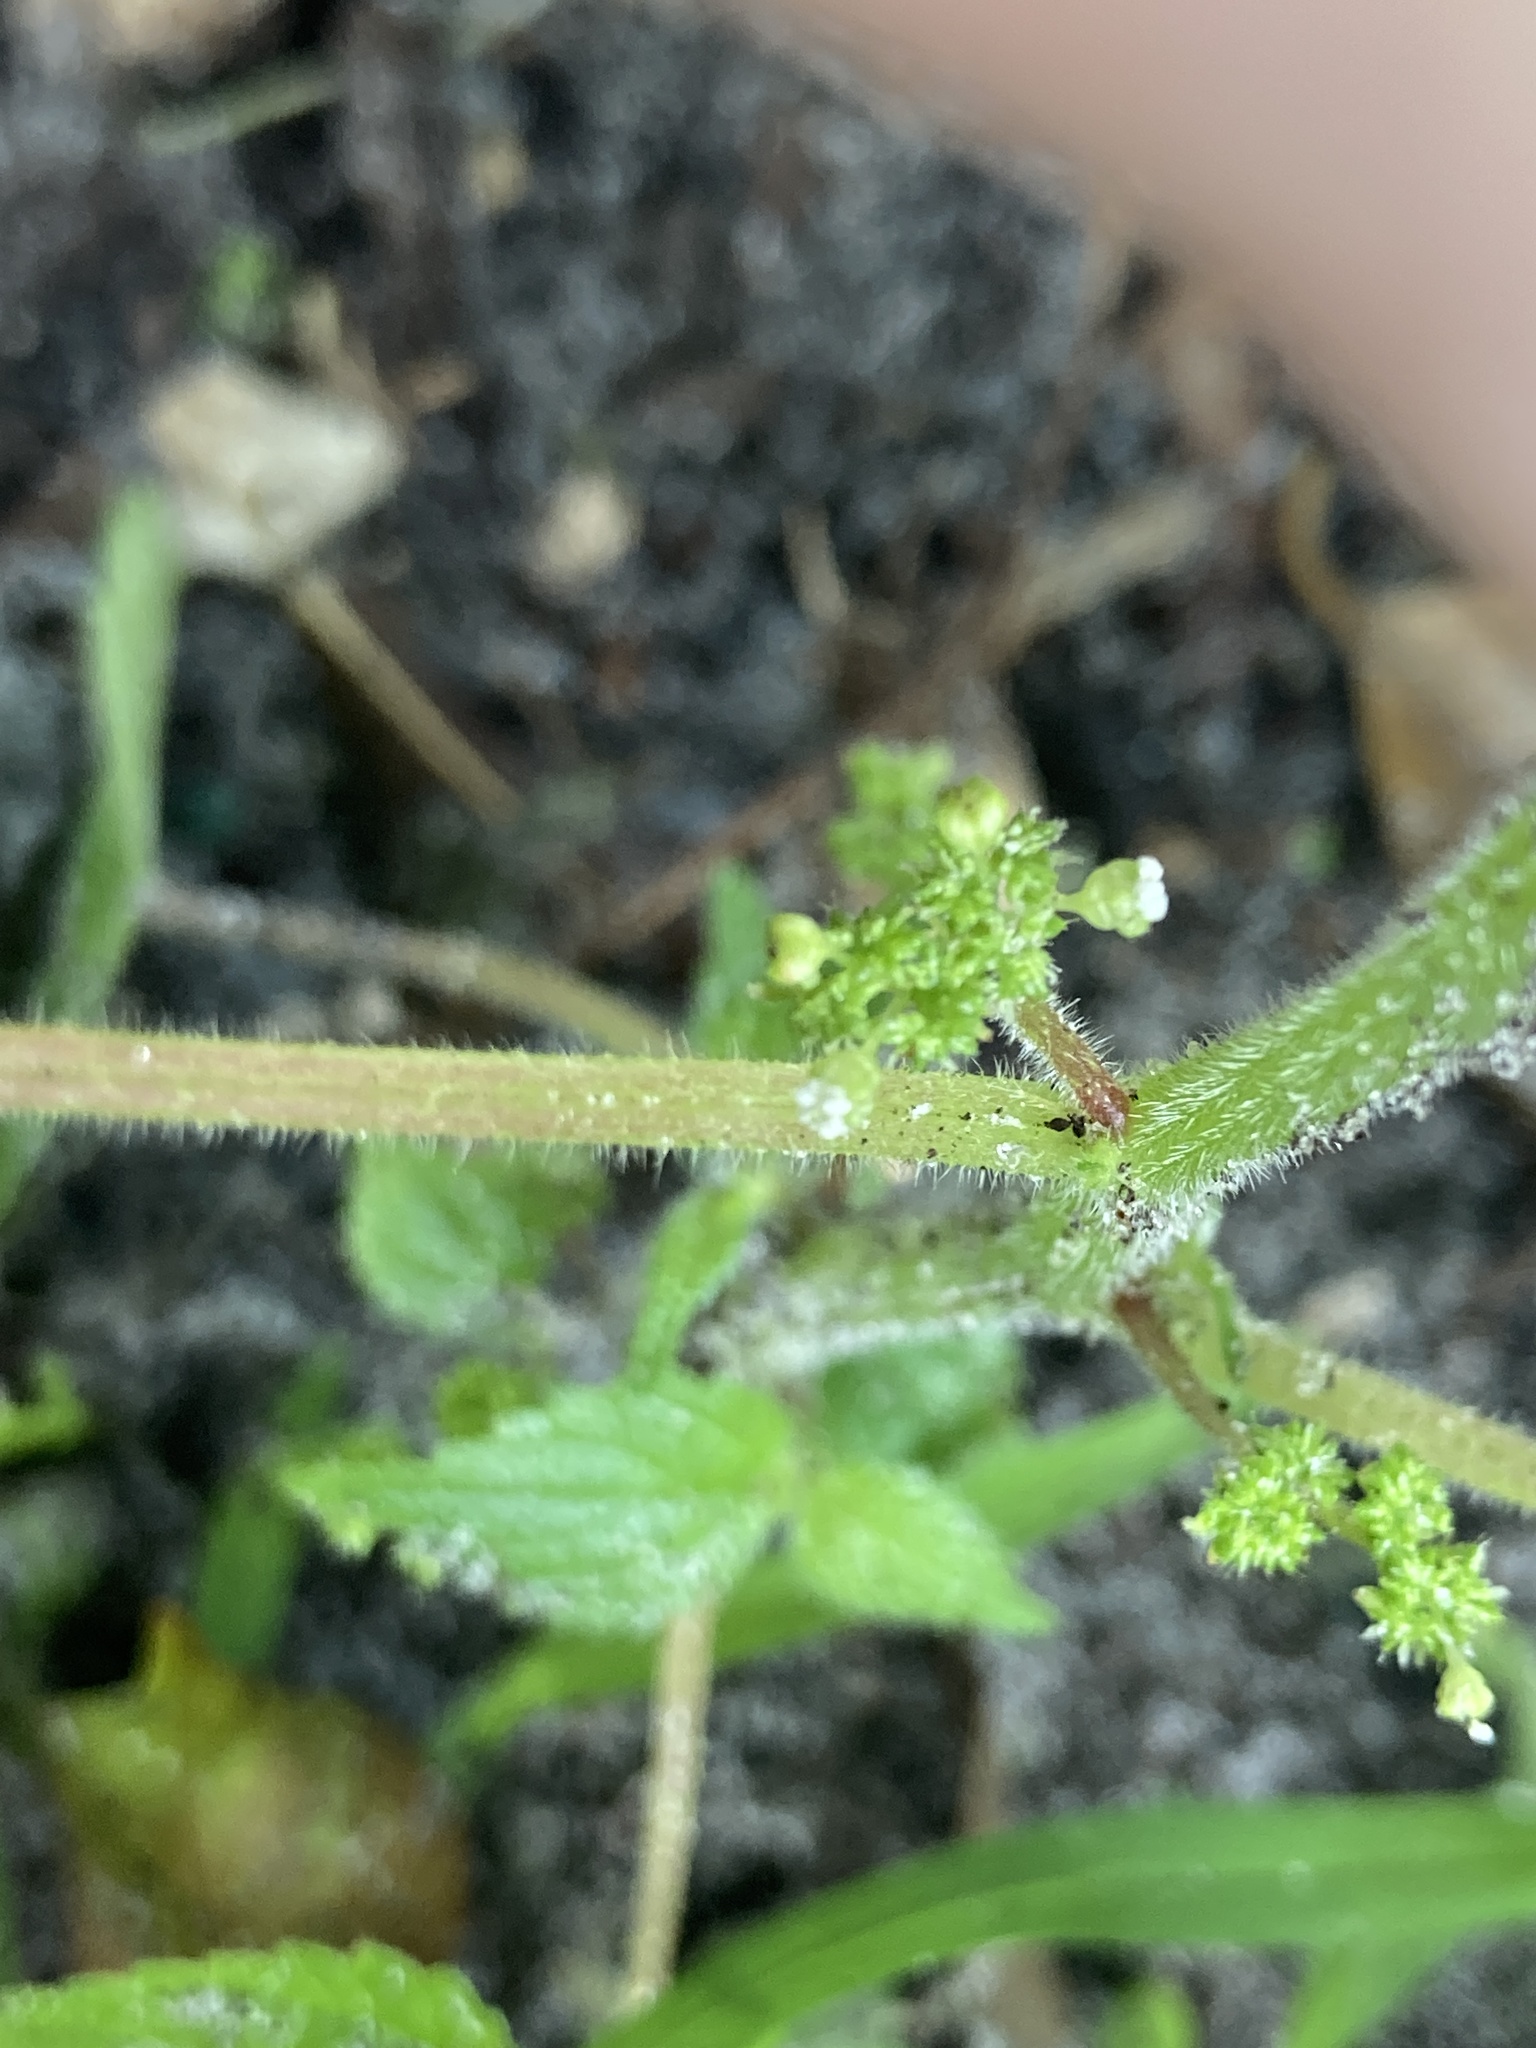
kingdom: Plantae
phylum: Tracheophyta
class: Magnoliopsida
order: Rosales
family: Urticaceae
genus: Laportea
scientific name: Laportea aestuans
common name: West indian woodnettle
